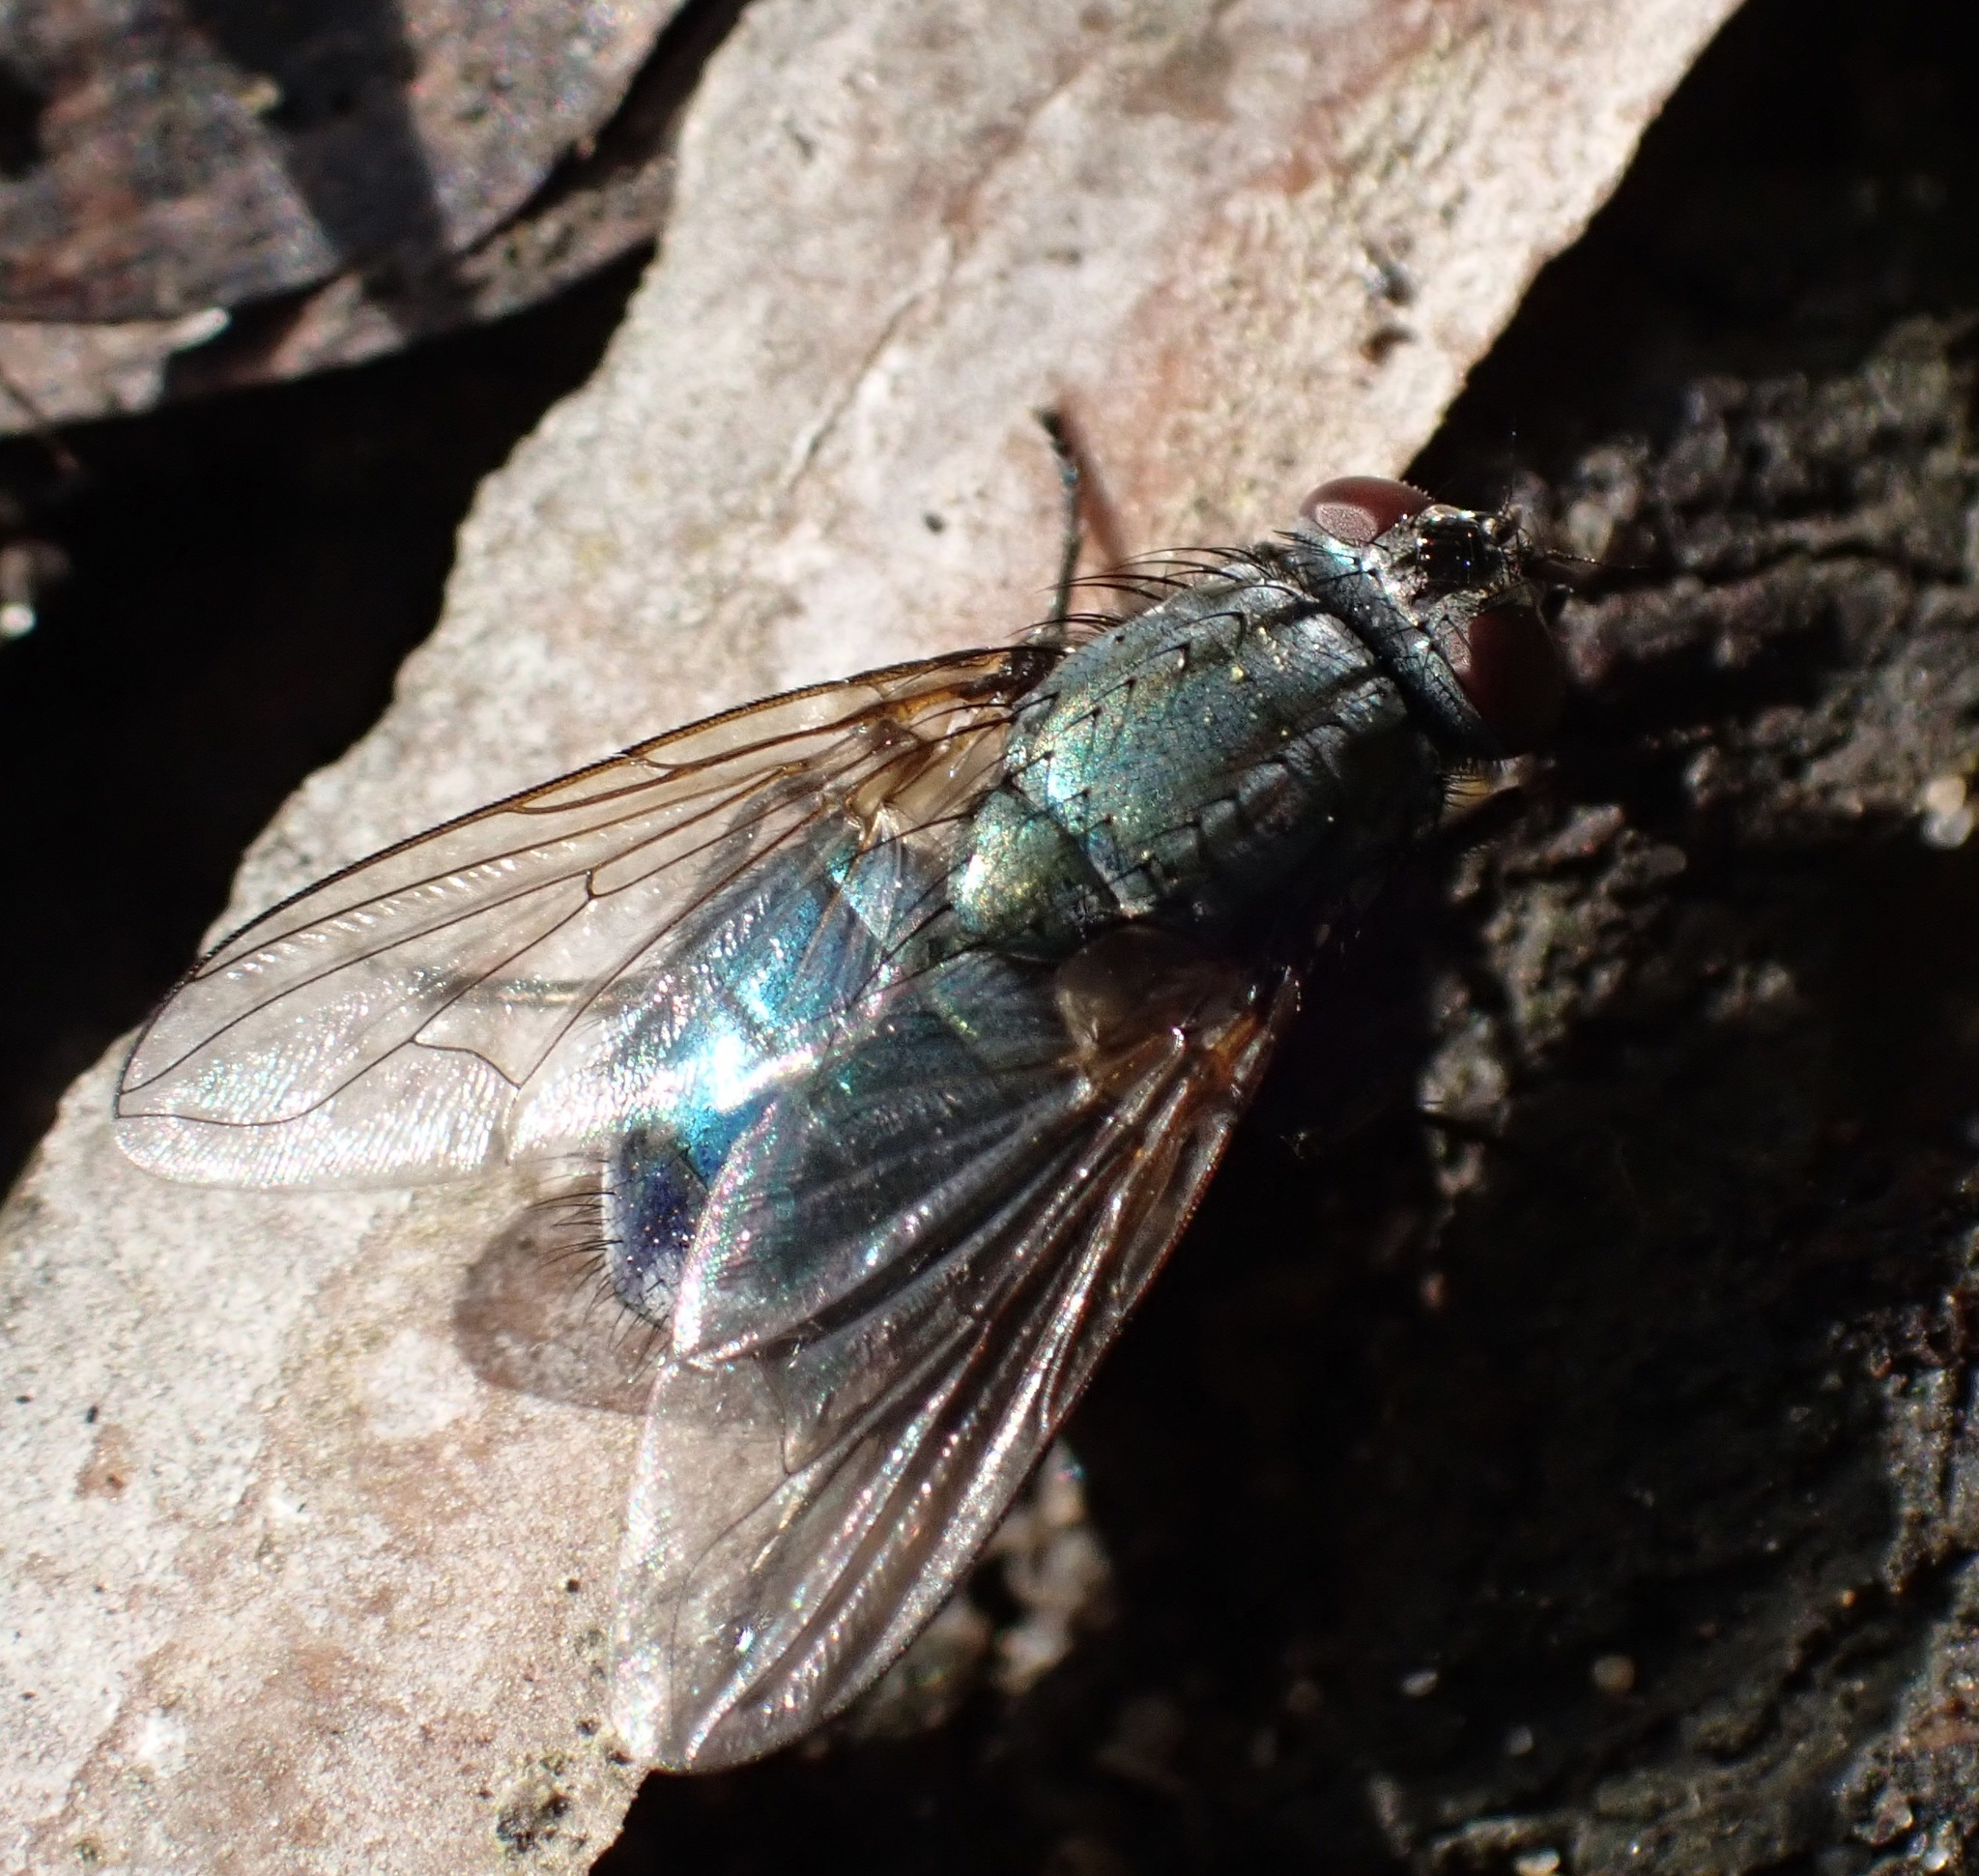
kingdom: Animalia
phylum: Arthropoda
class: Insecta
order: Diptera
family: Muscidae
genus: Dasyphora
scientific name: Dasyphora cyanella
